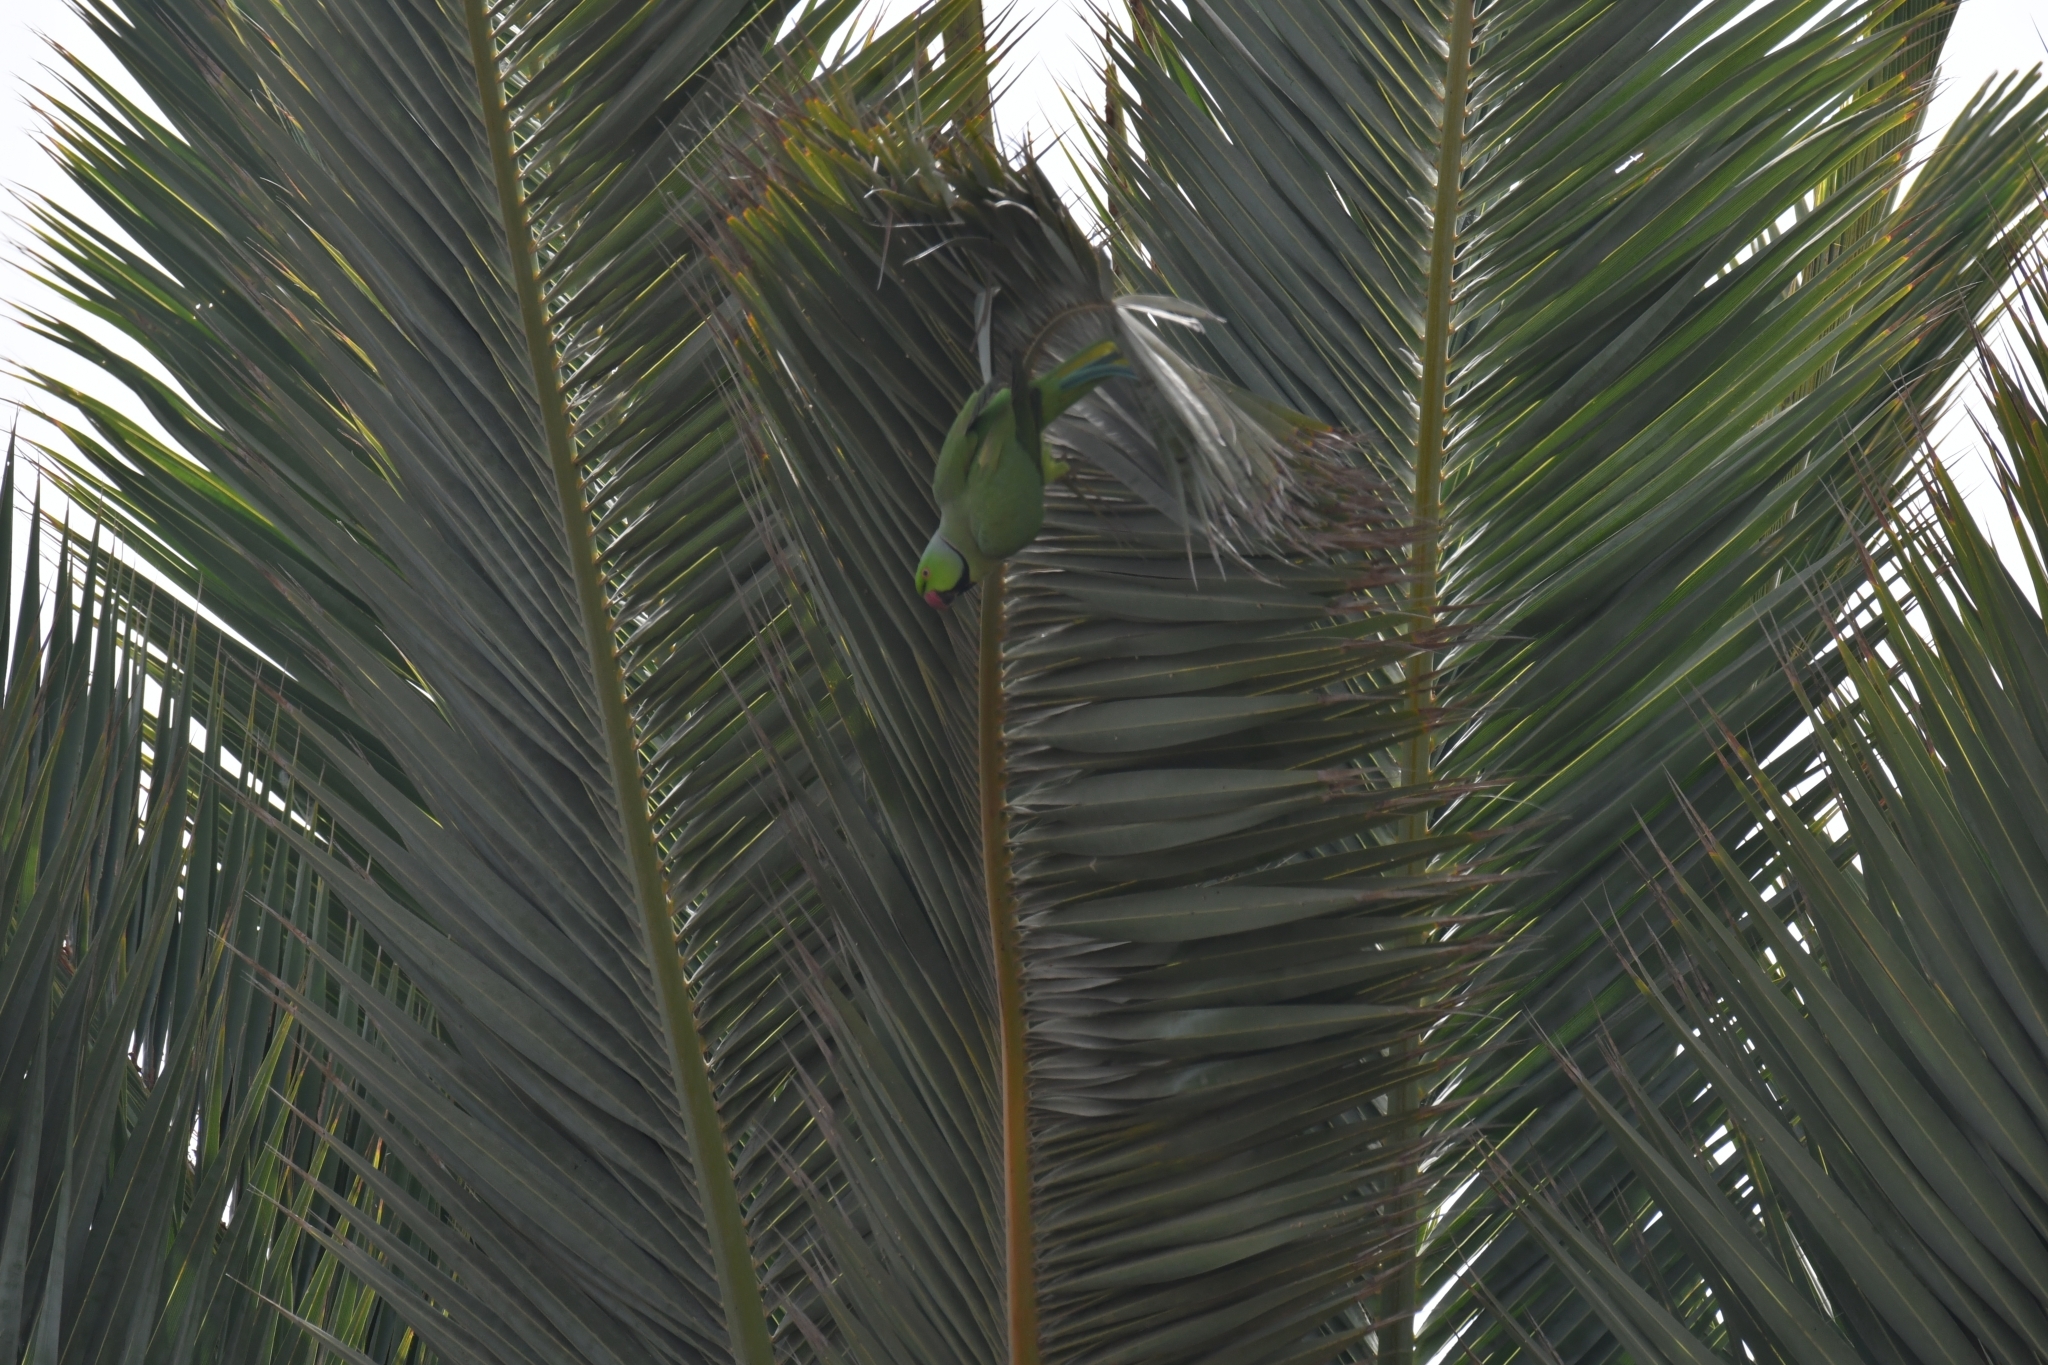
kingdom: Animalia
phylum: Chordata
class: Aves
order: Psittaciformes
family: Psittacidae
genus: Psittacula
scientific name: Psittacula krameri
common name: Rose-ringed parakeet
